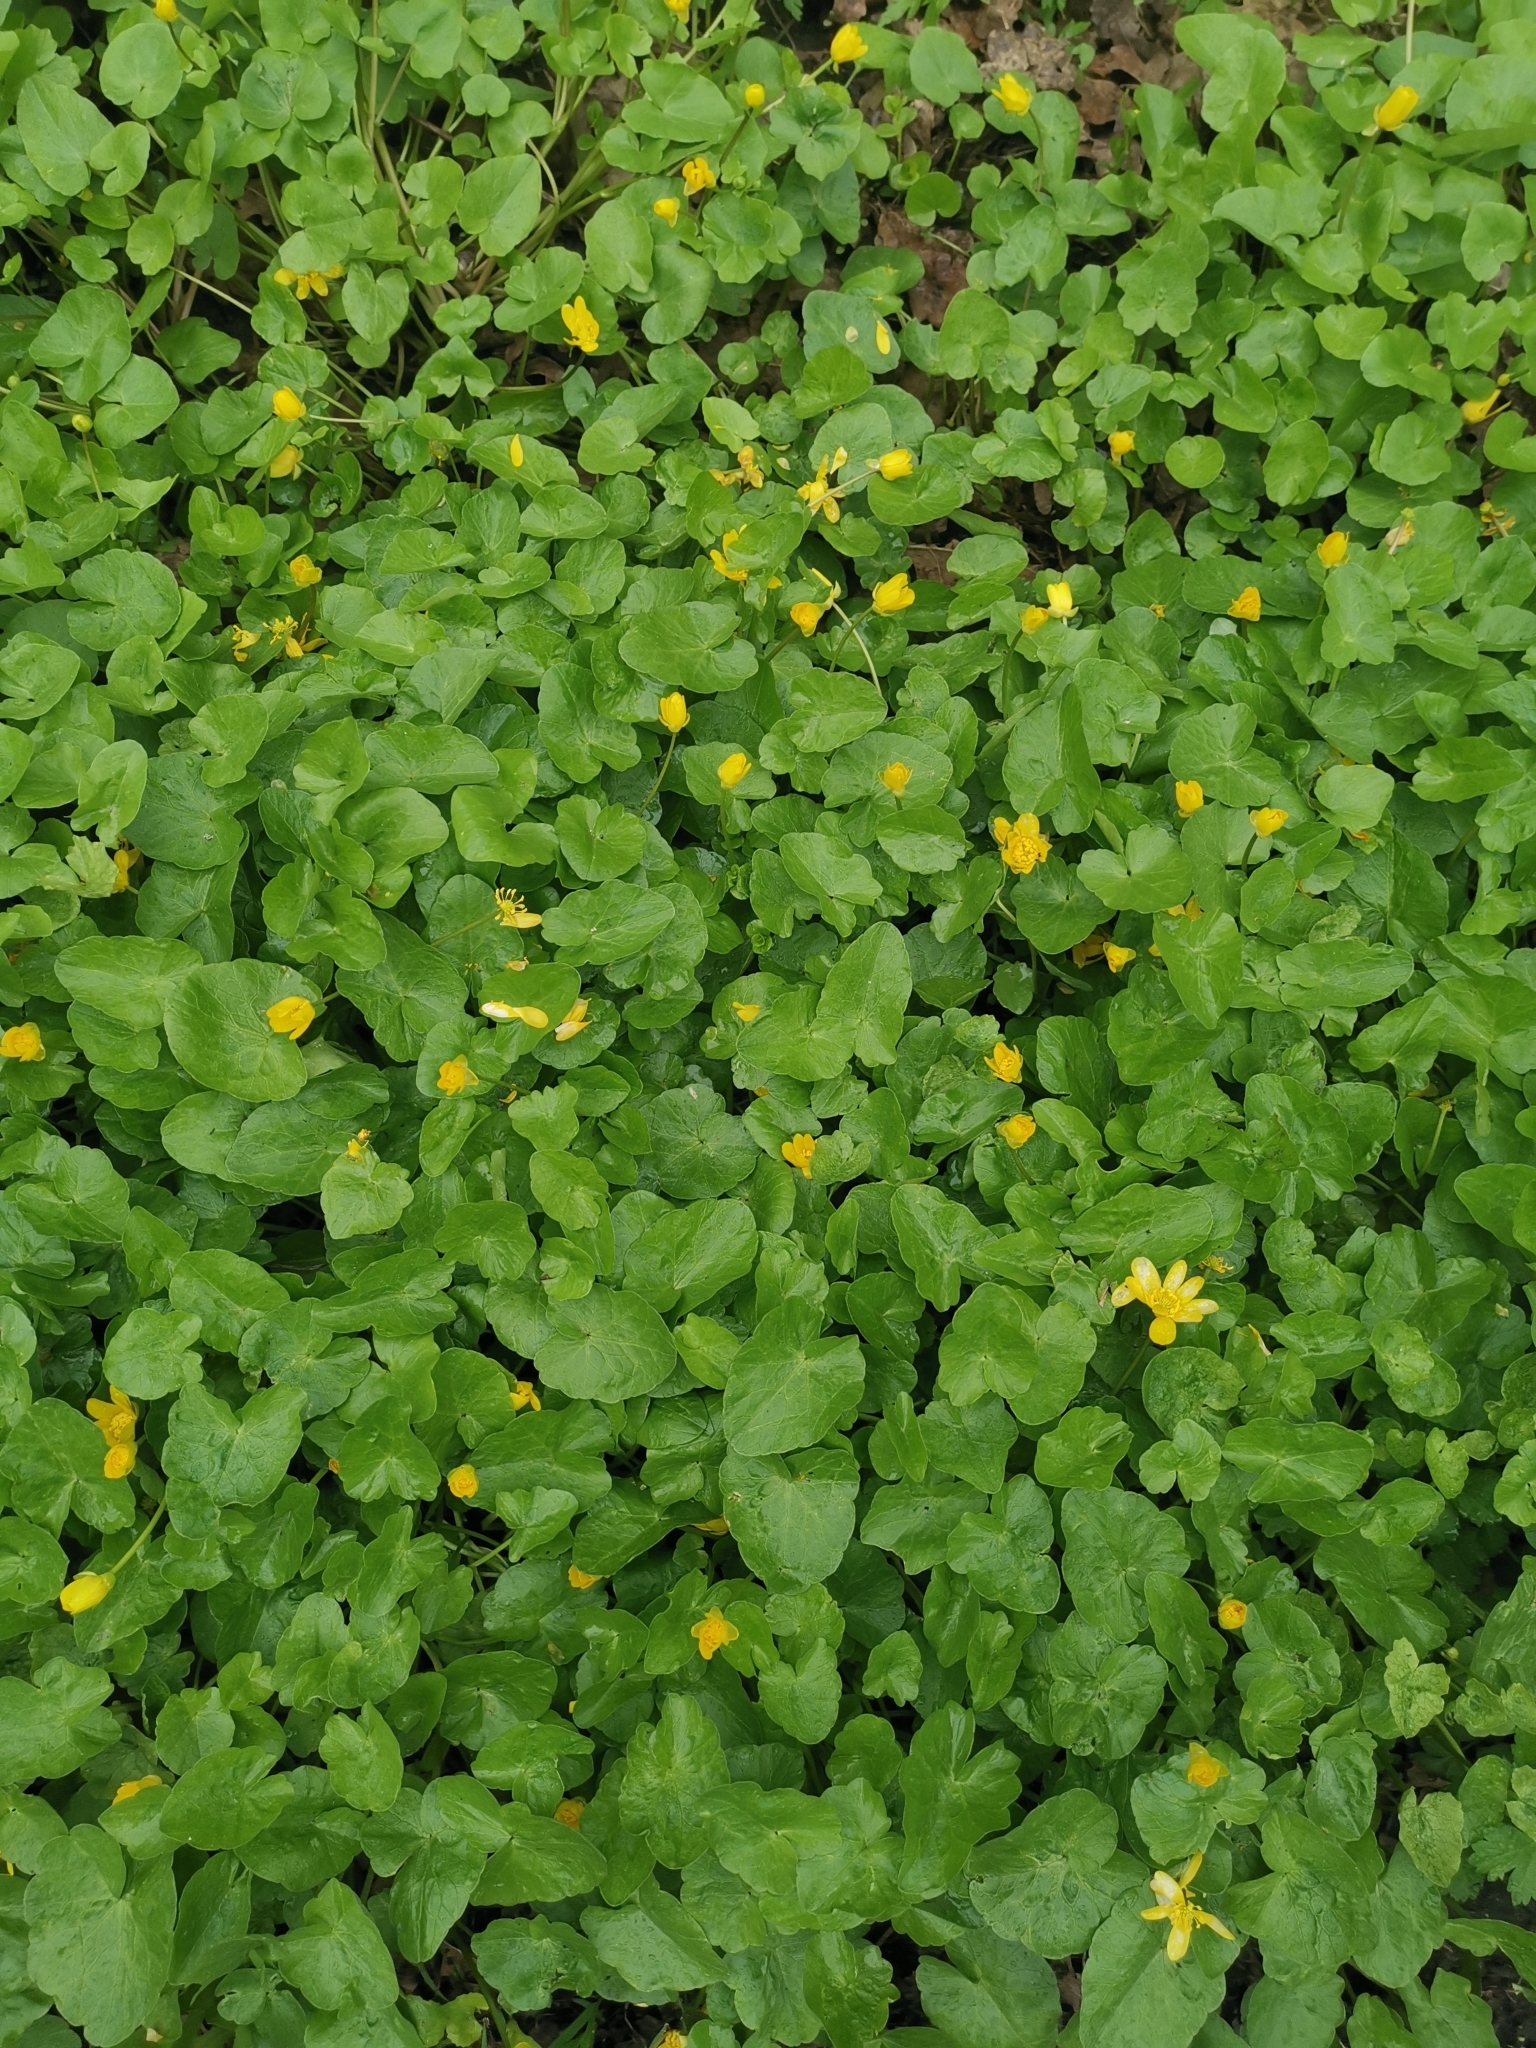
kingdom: Plantae
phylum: Tracheophyta
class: Magnoliopsida
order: Ranunculales
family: Ranunculaceae
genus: Ficaria
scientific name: Ficaria verna
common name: Lesser celandine
